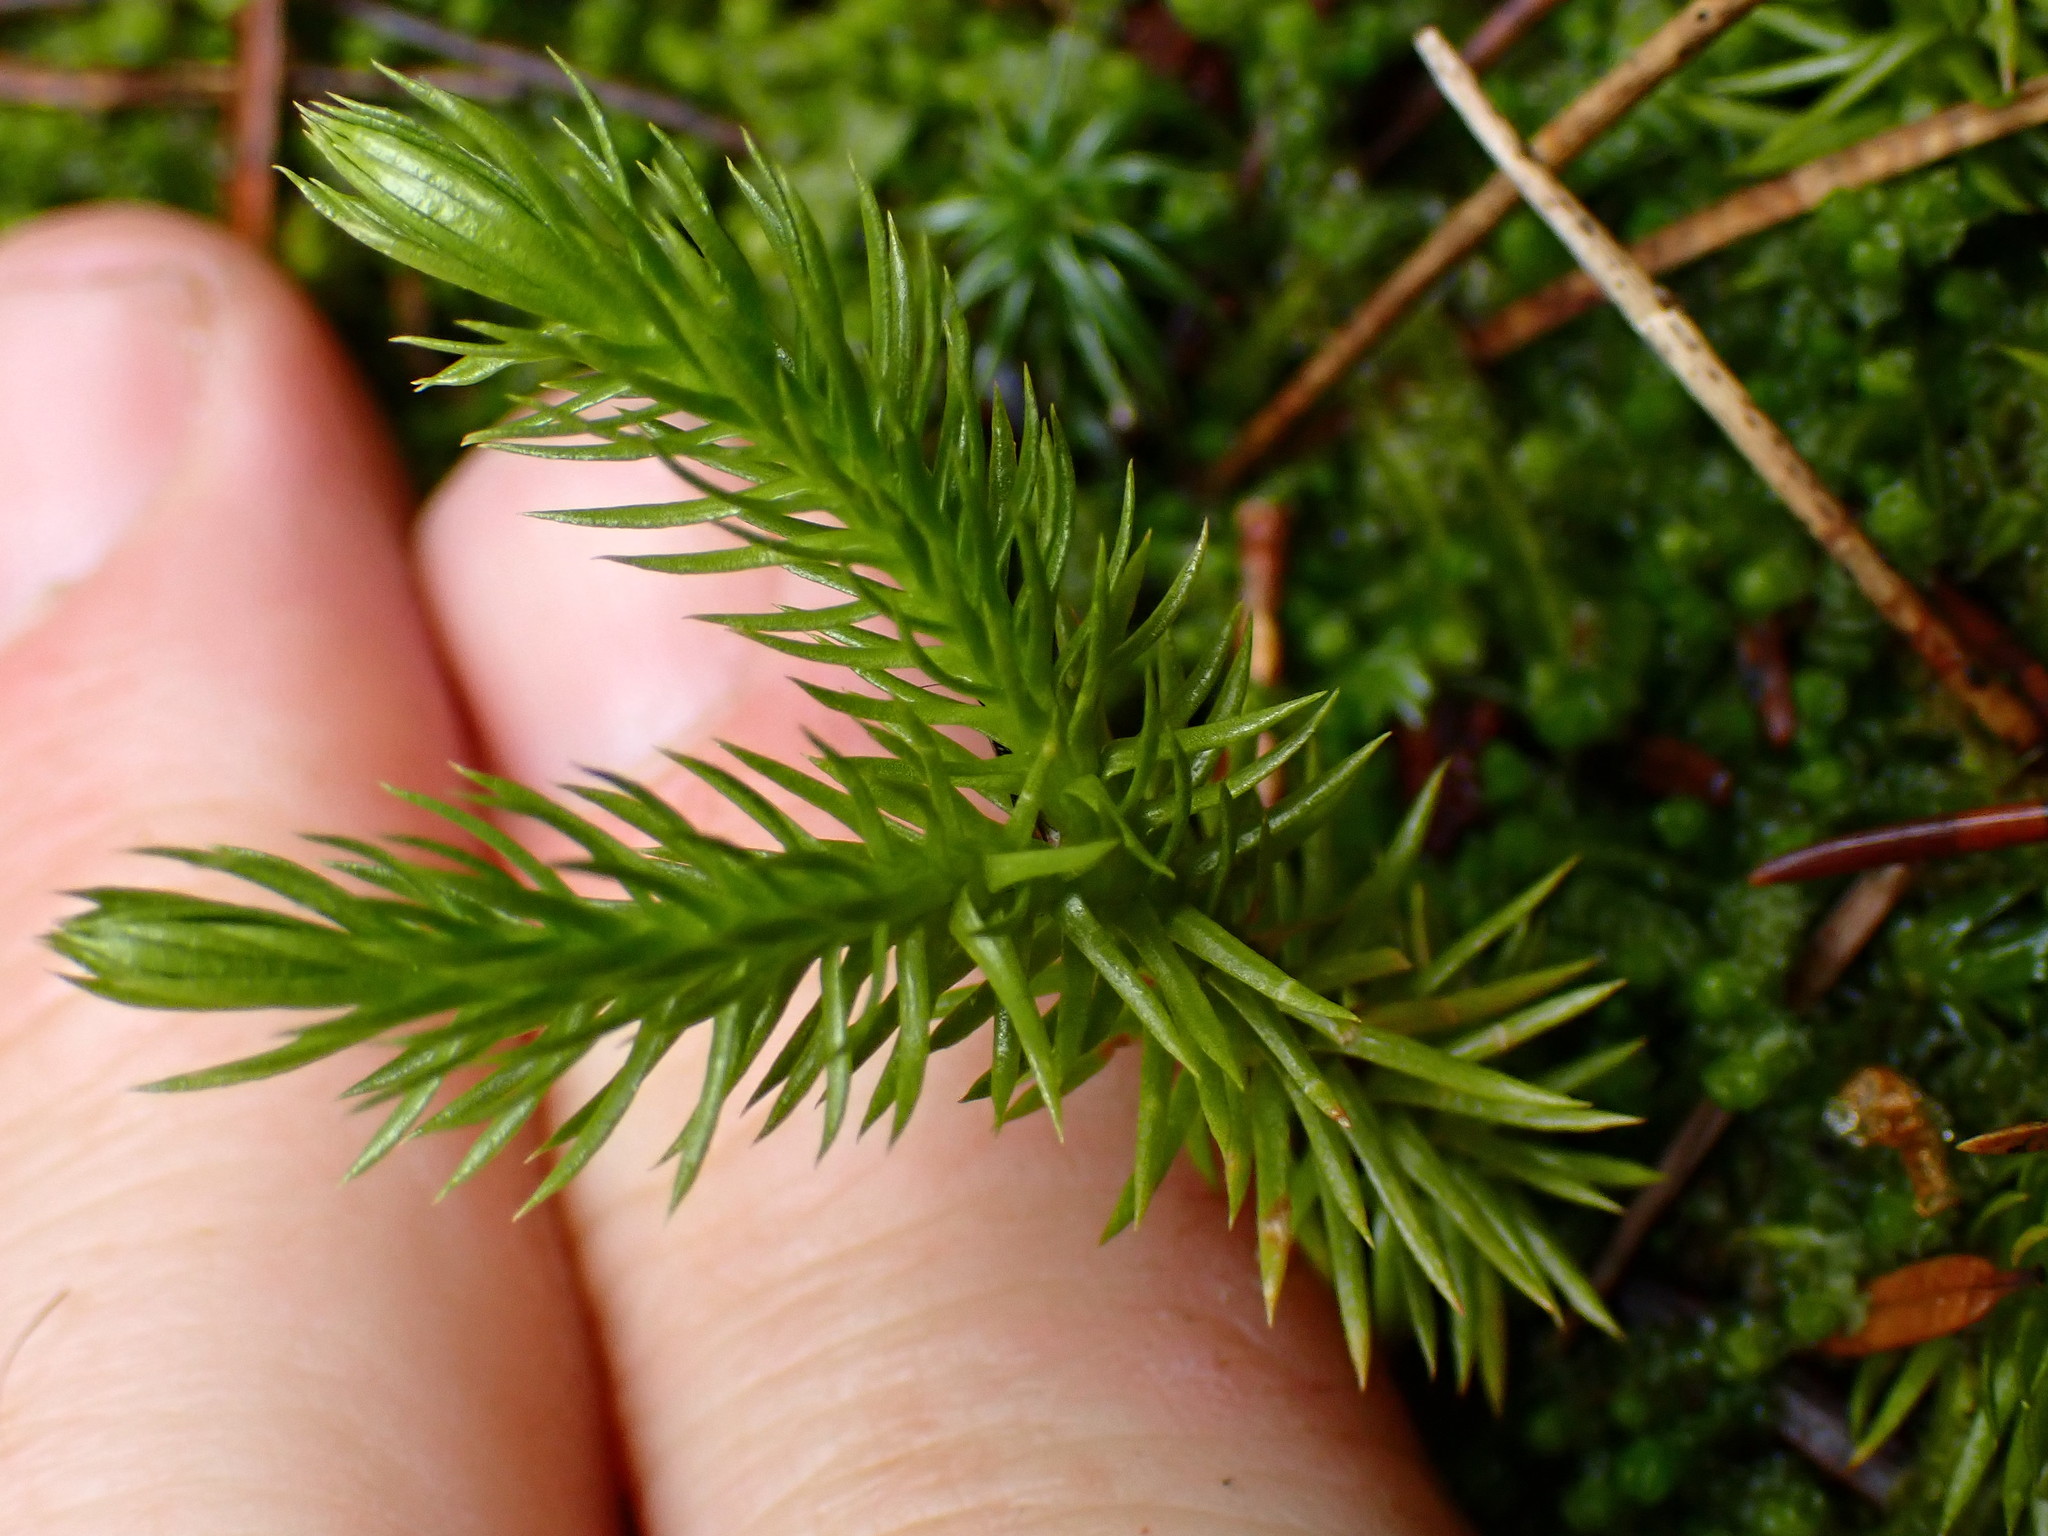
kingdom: Plantae
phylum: Tracheophyta
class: Lycopodiopsida
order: Lycopodiales
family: Lycopodiaceae
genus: Huperzia
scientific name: Huperzia miyoshiana
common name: Chinese clubmoss
